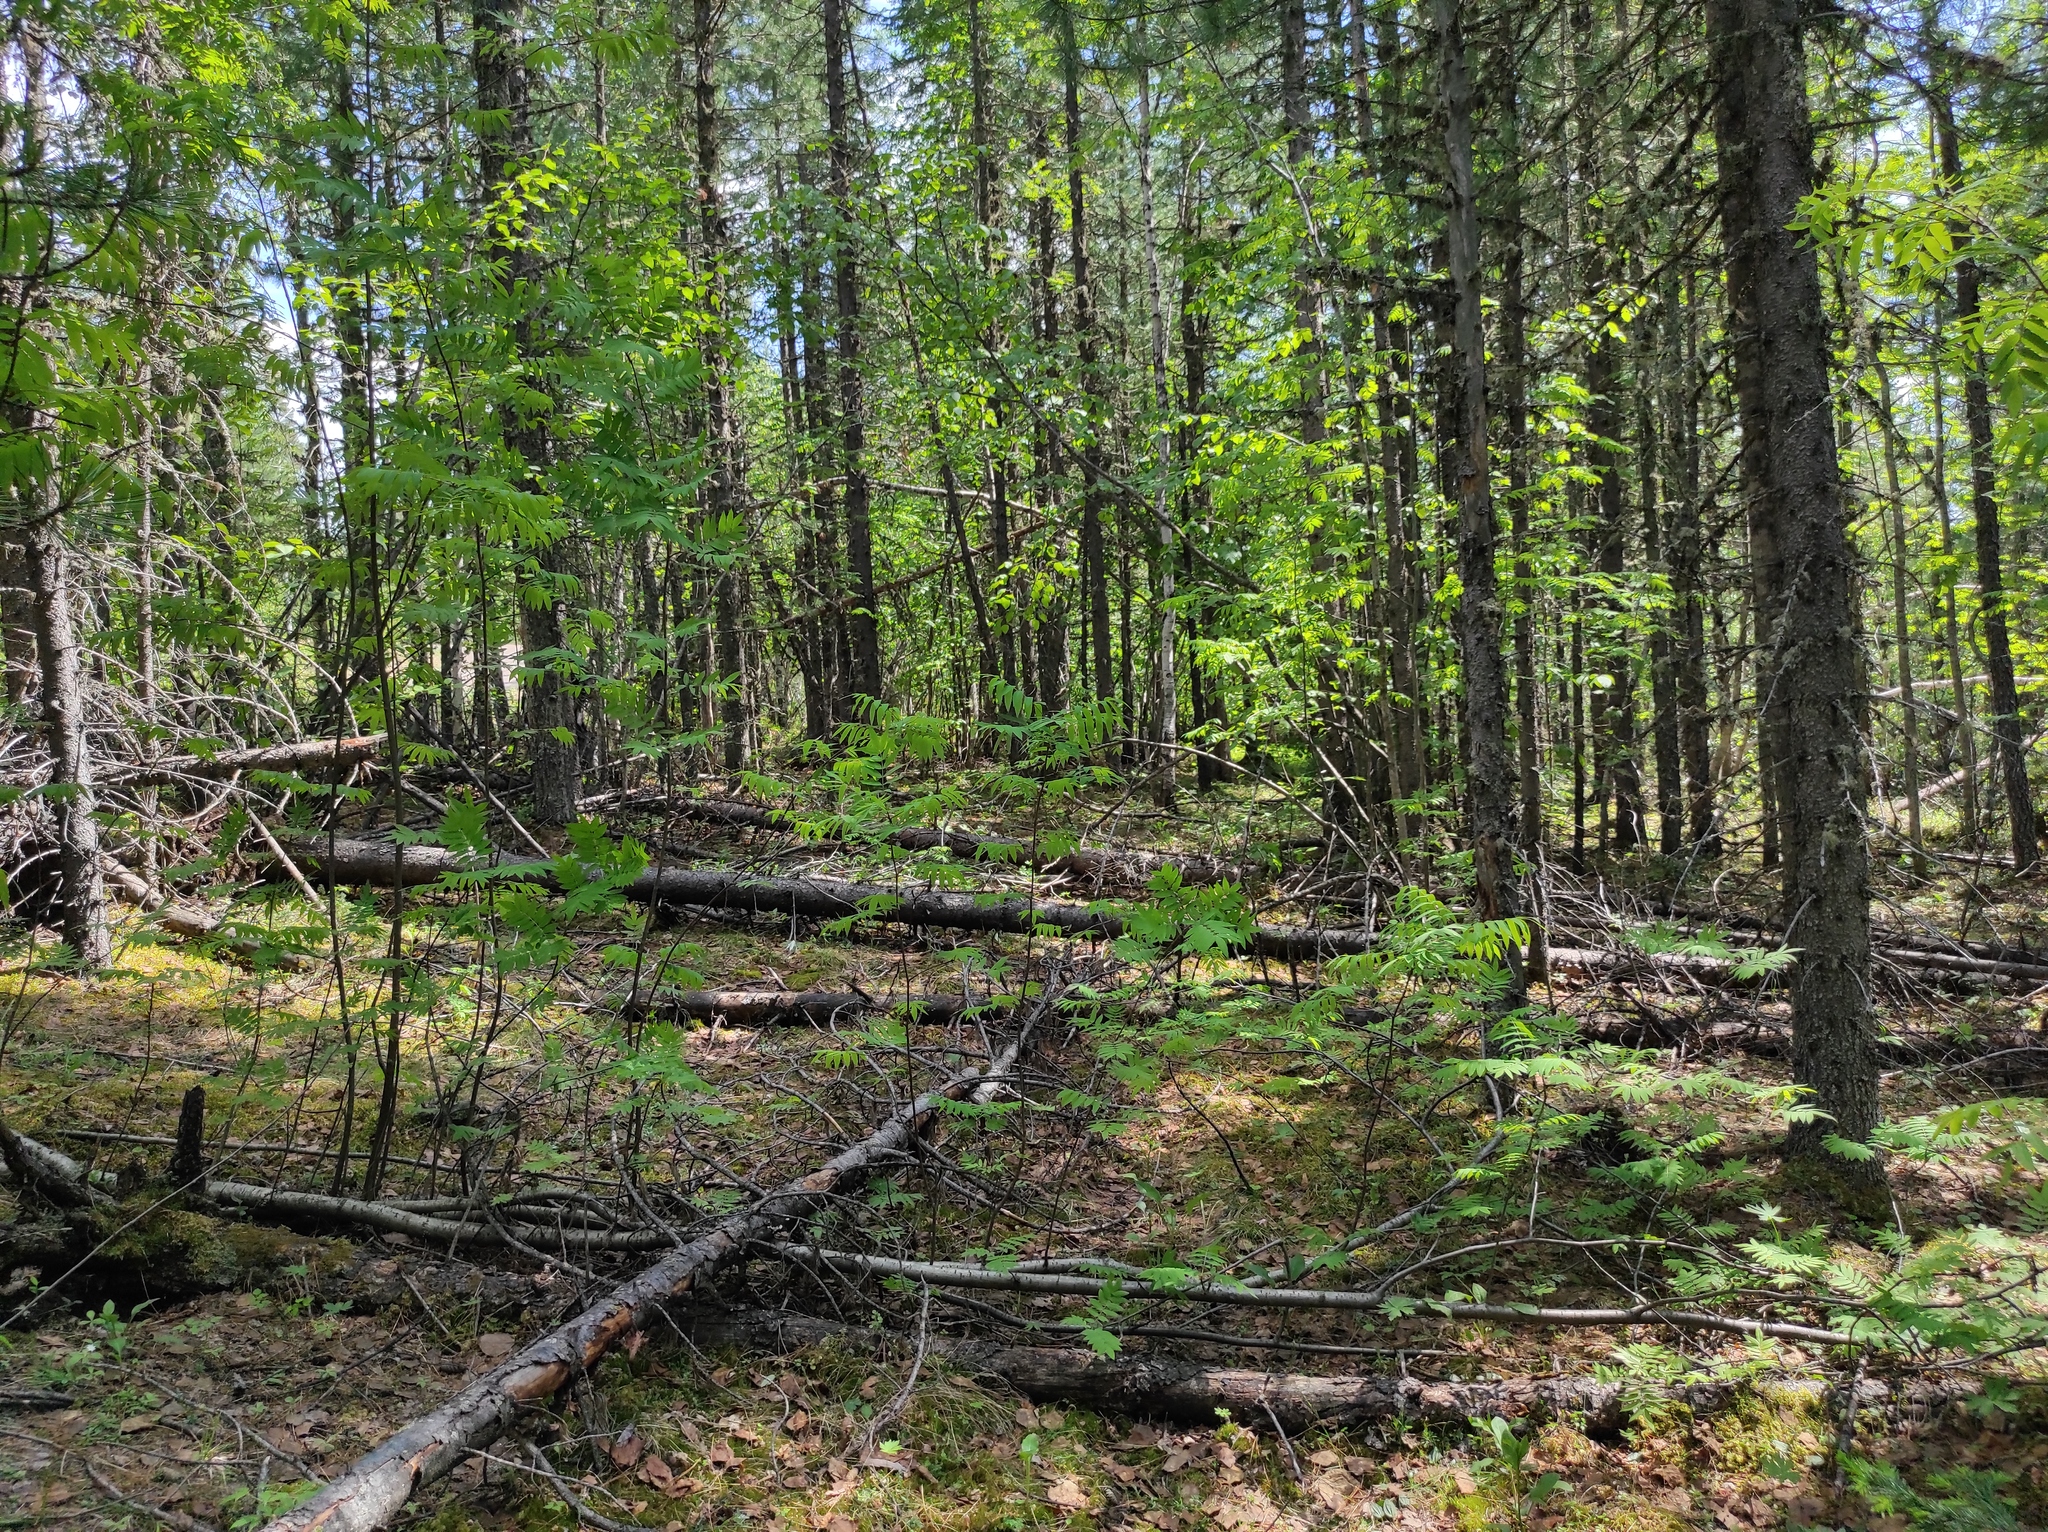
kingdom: Plantae
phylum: Tracheophyta
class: Magnoliopsida
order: Rosales
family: Rosaceae
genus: Sorbus
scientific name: Sorbus aucuparia
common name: Rowan
